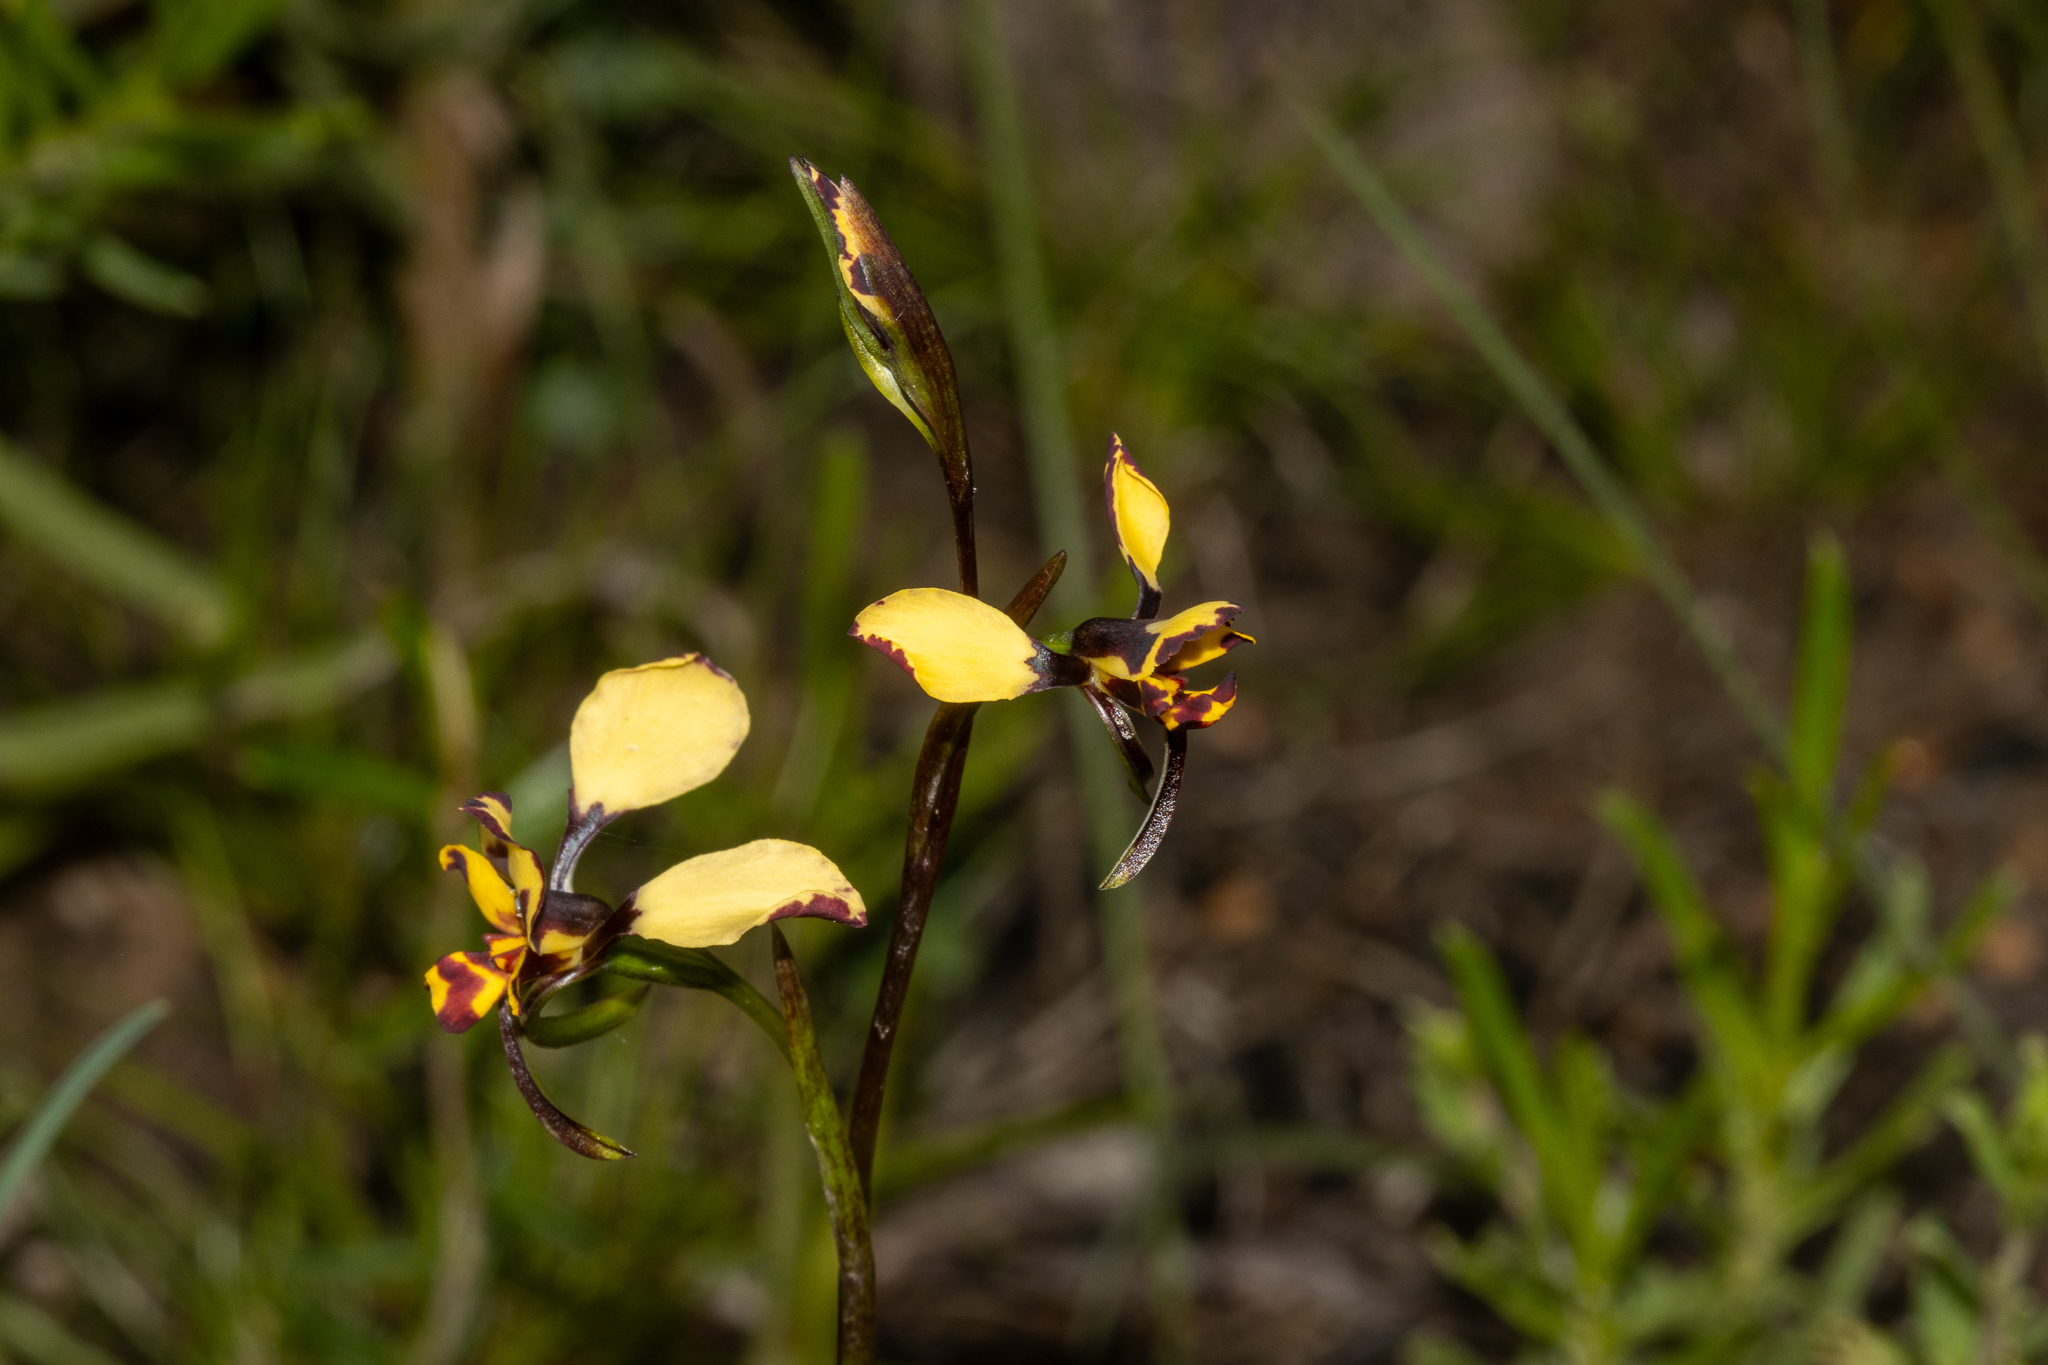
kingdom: Plantae
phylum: Tracheophyta
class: Liliopsida
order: Asparagales
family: Orchidaceae
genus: Diuris
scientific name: Diuris pardina
